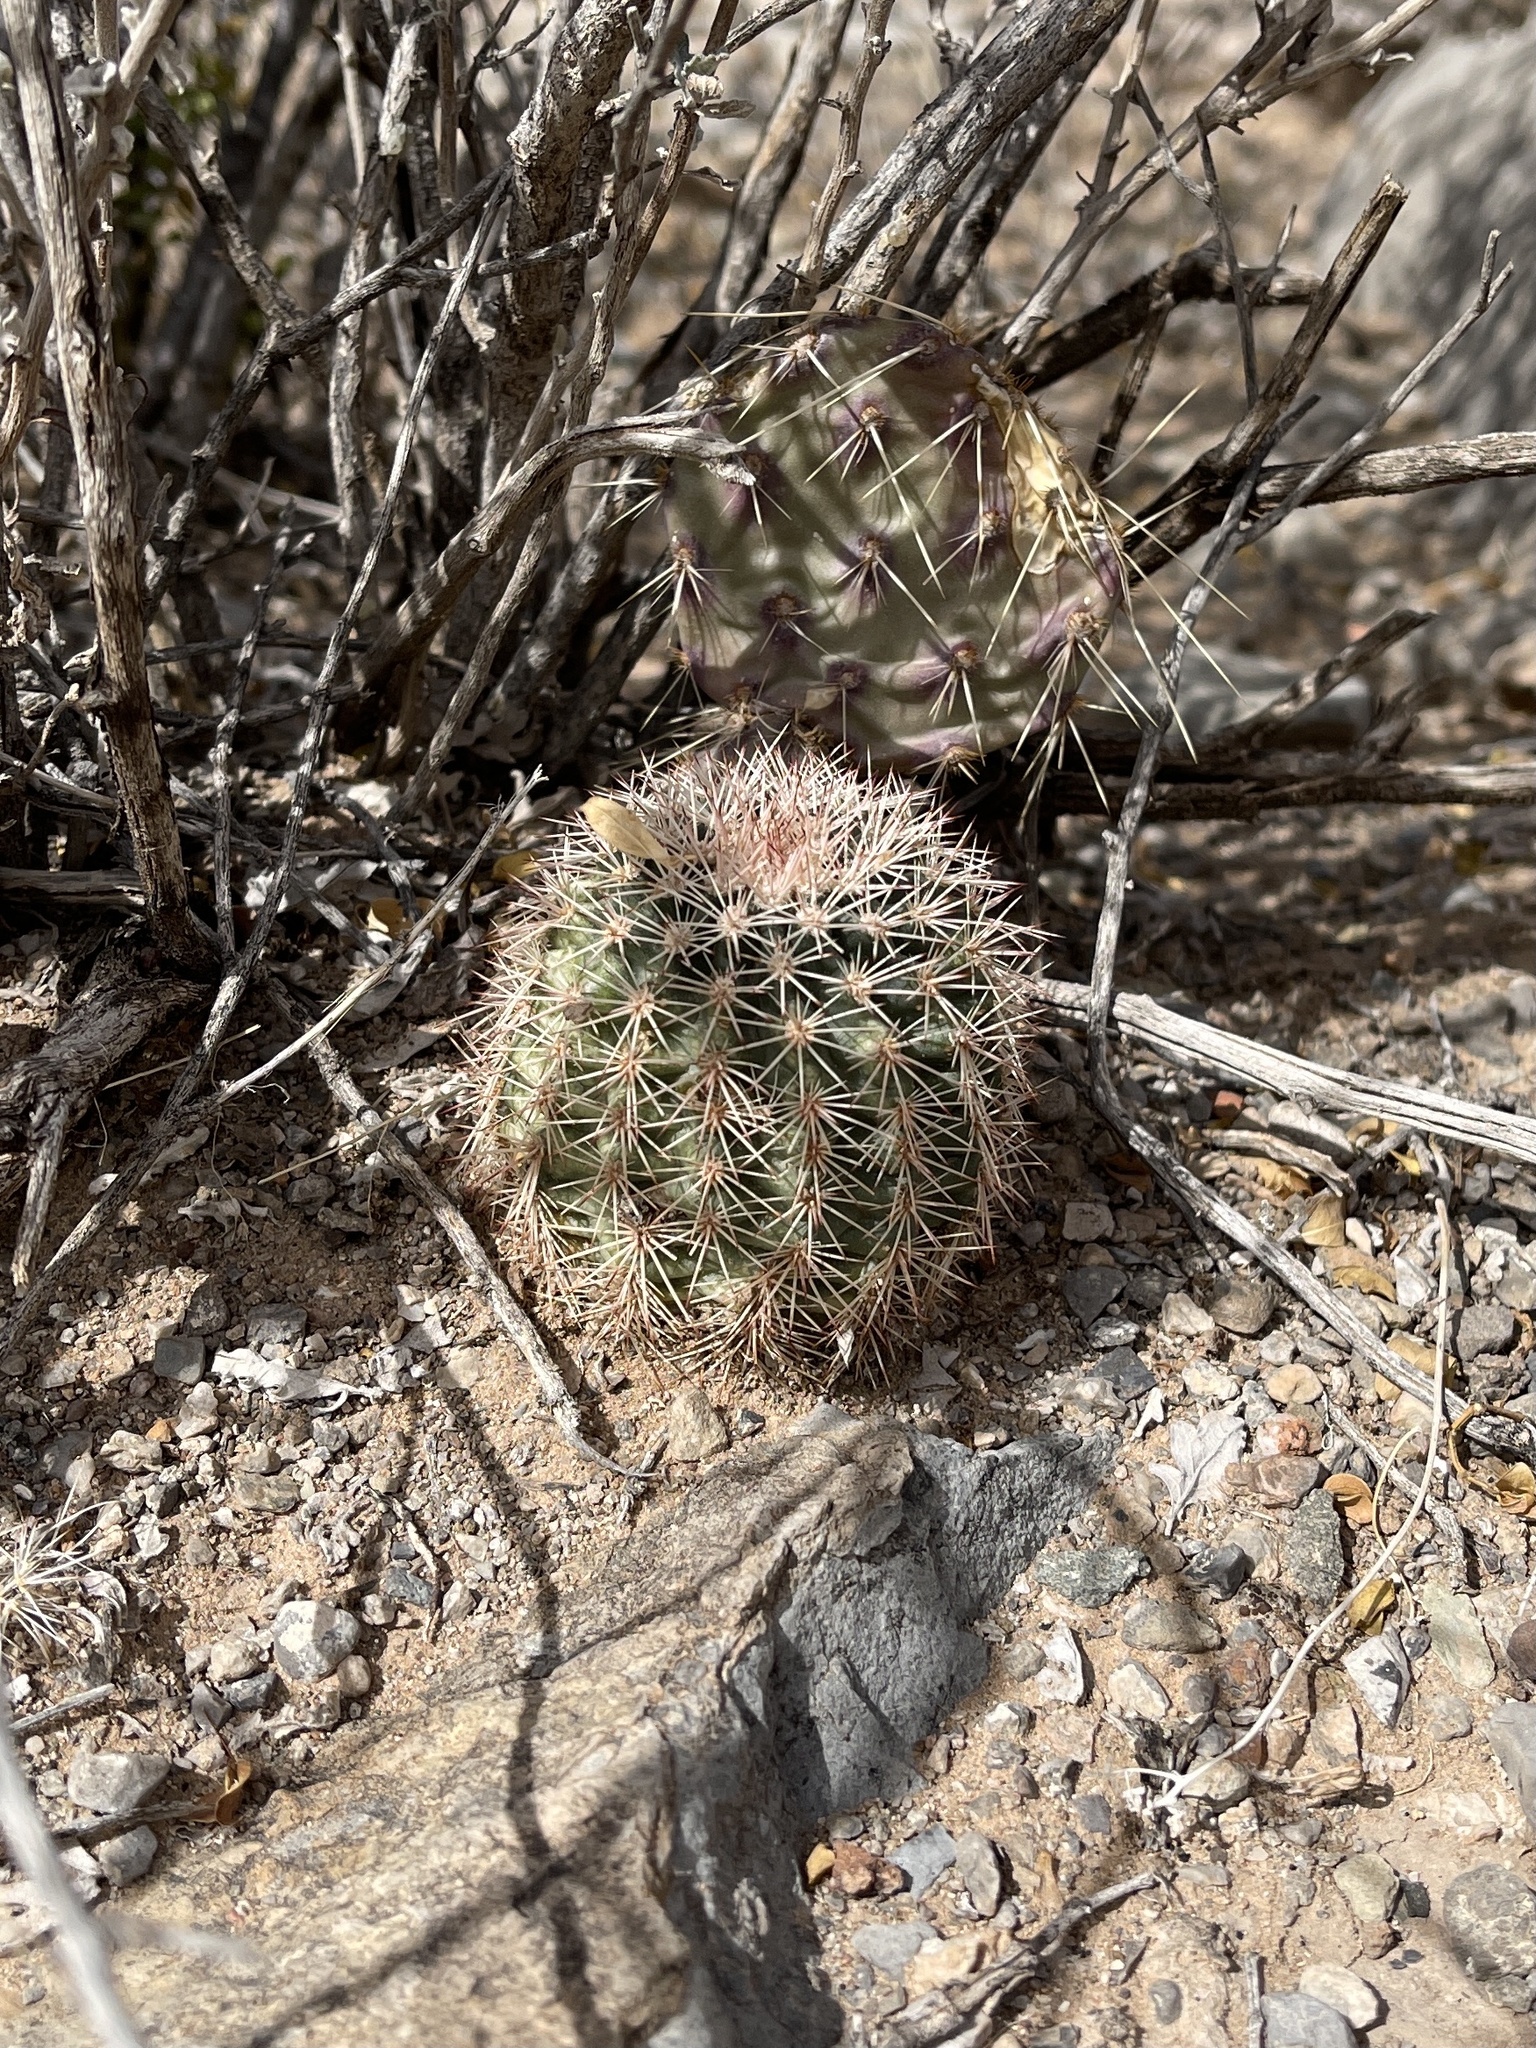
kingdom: Plantae
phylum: Tracheophyta
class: Magnoliopsida
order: Caryophyllales
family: Cactaceae
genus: Echinocereus
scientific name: Echinocereus dasyacanthus
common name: Spiny hedgehog cactus
